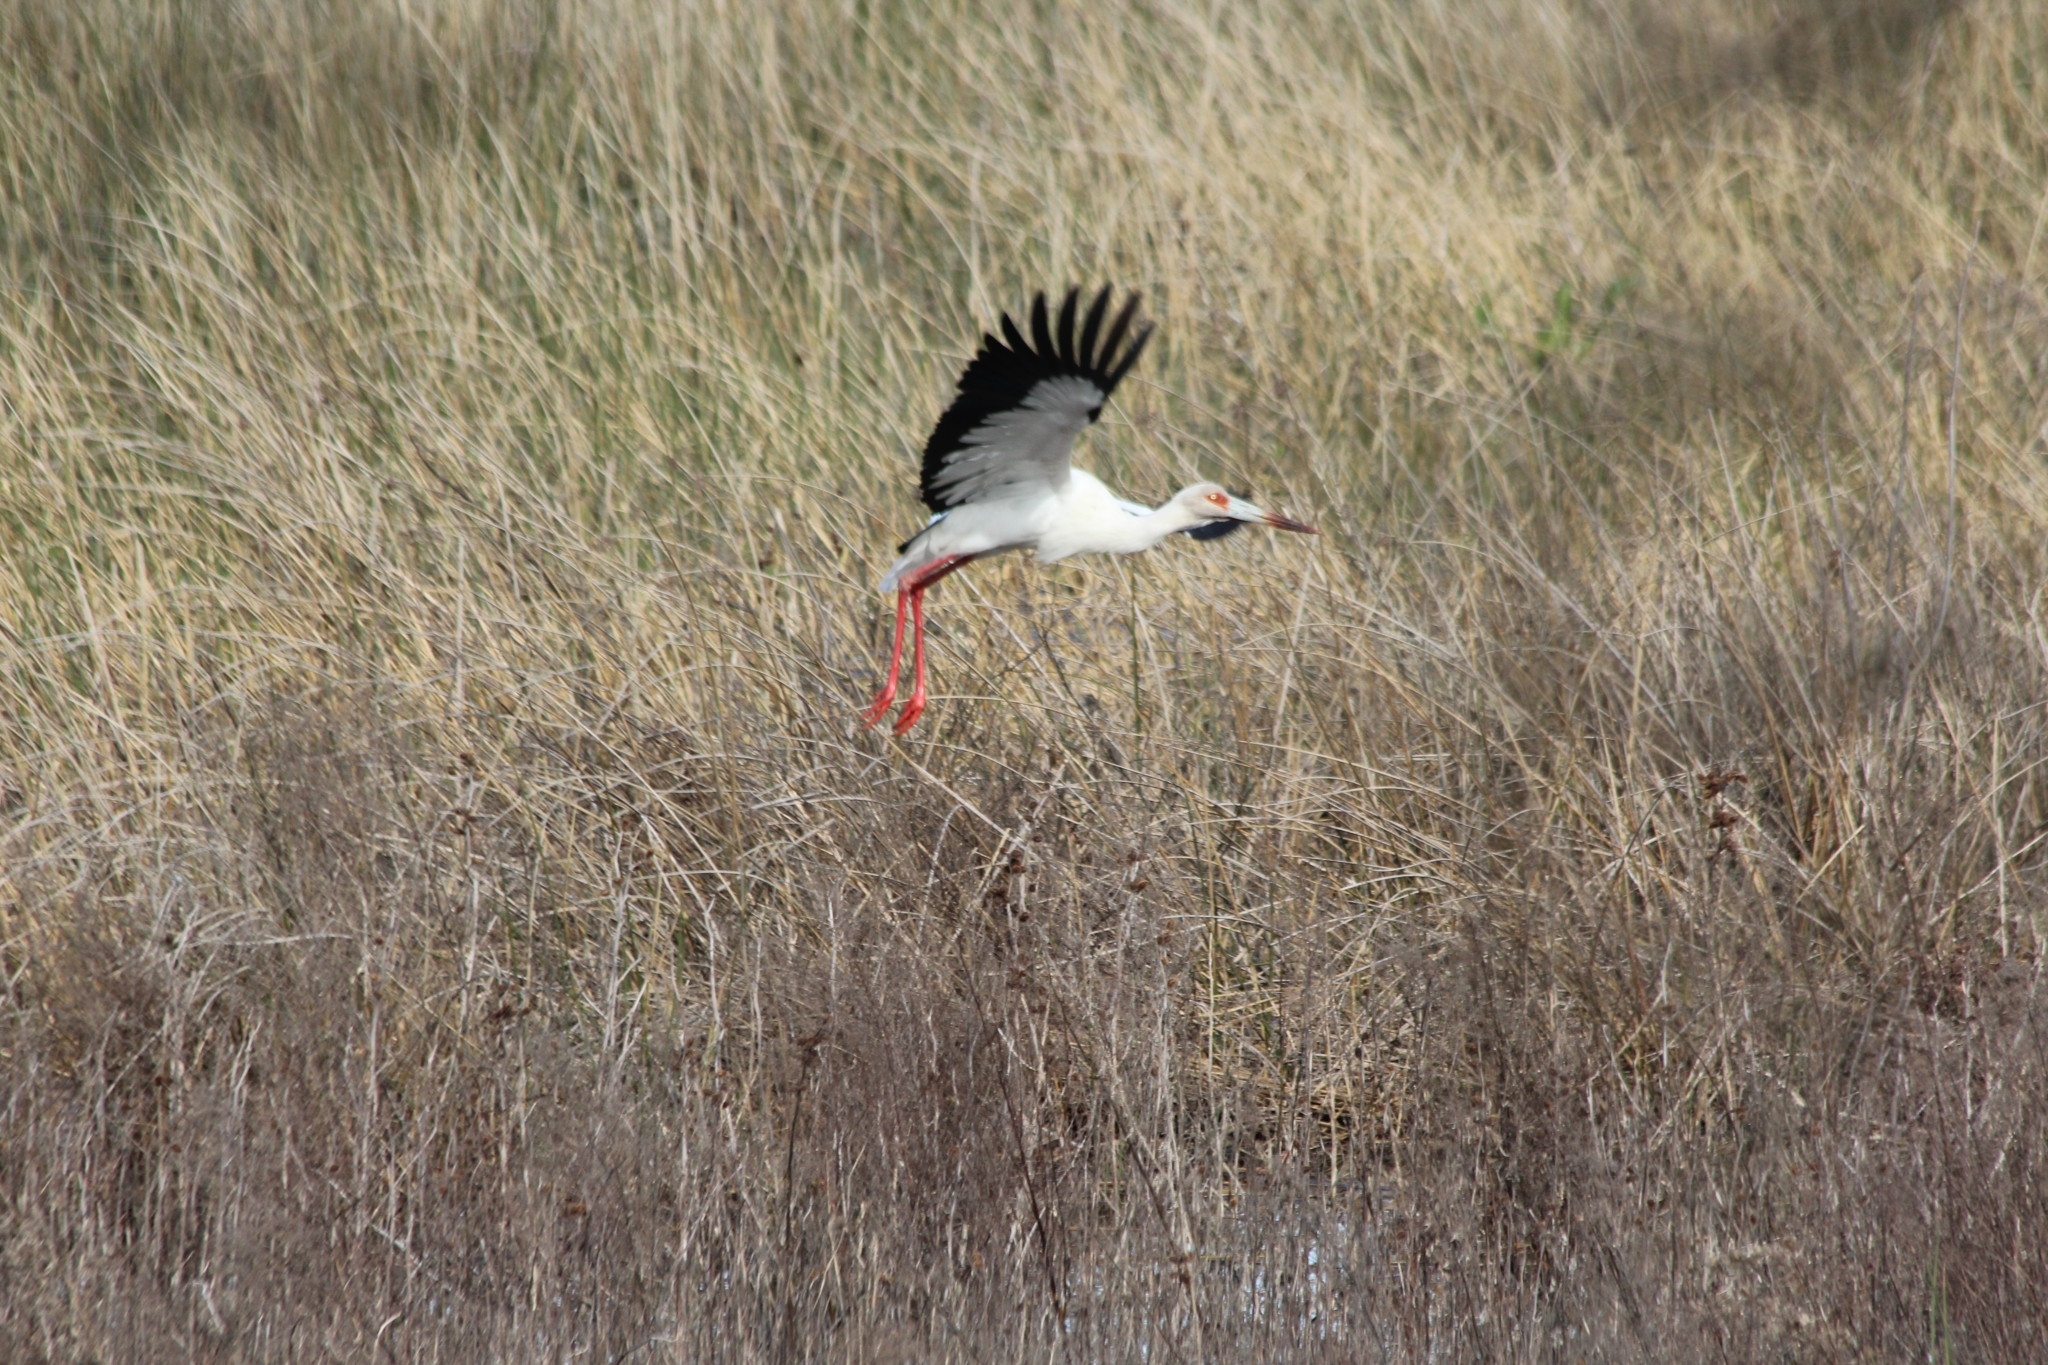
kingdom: Animalia
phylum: Chordata
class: Aves
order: Ciconiiformes
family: Ciconiidae
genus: Ciconia
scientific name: Ciconia maguari
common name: Maguari stork
